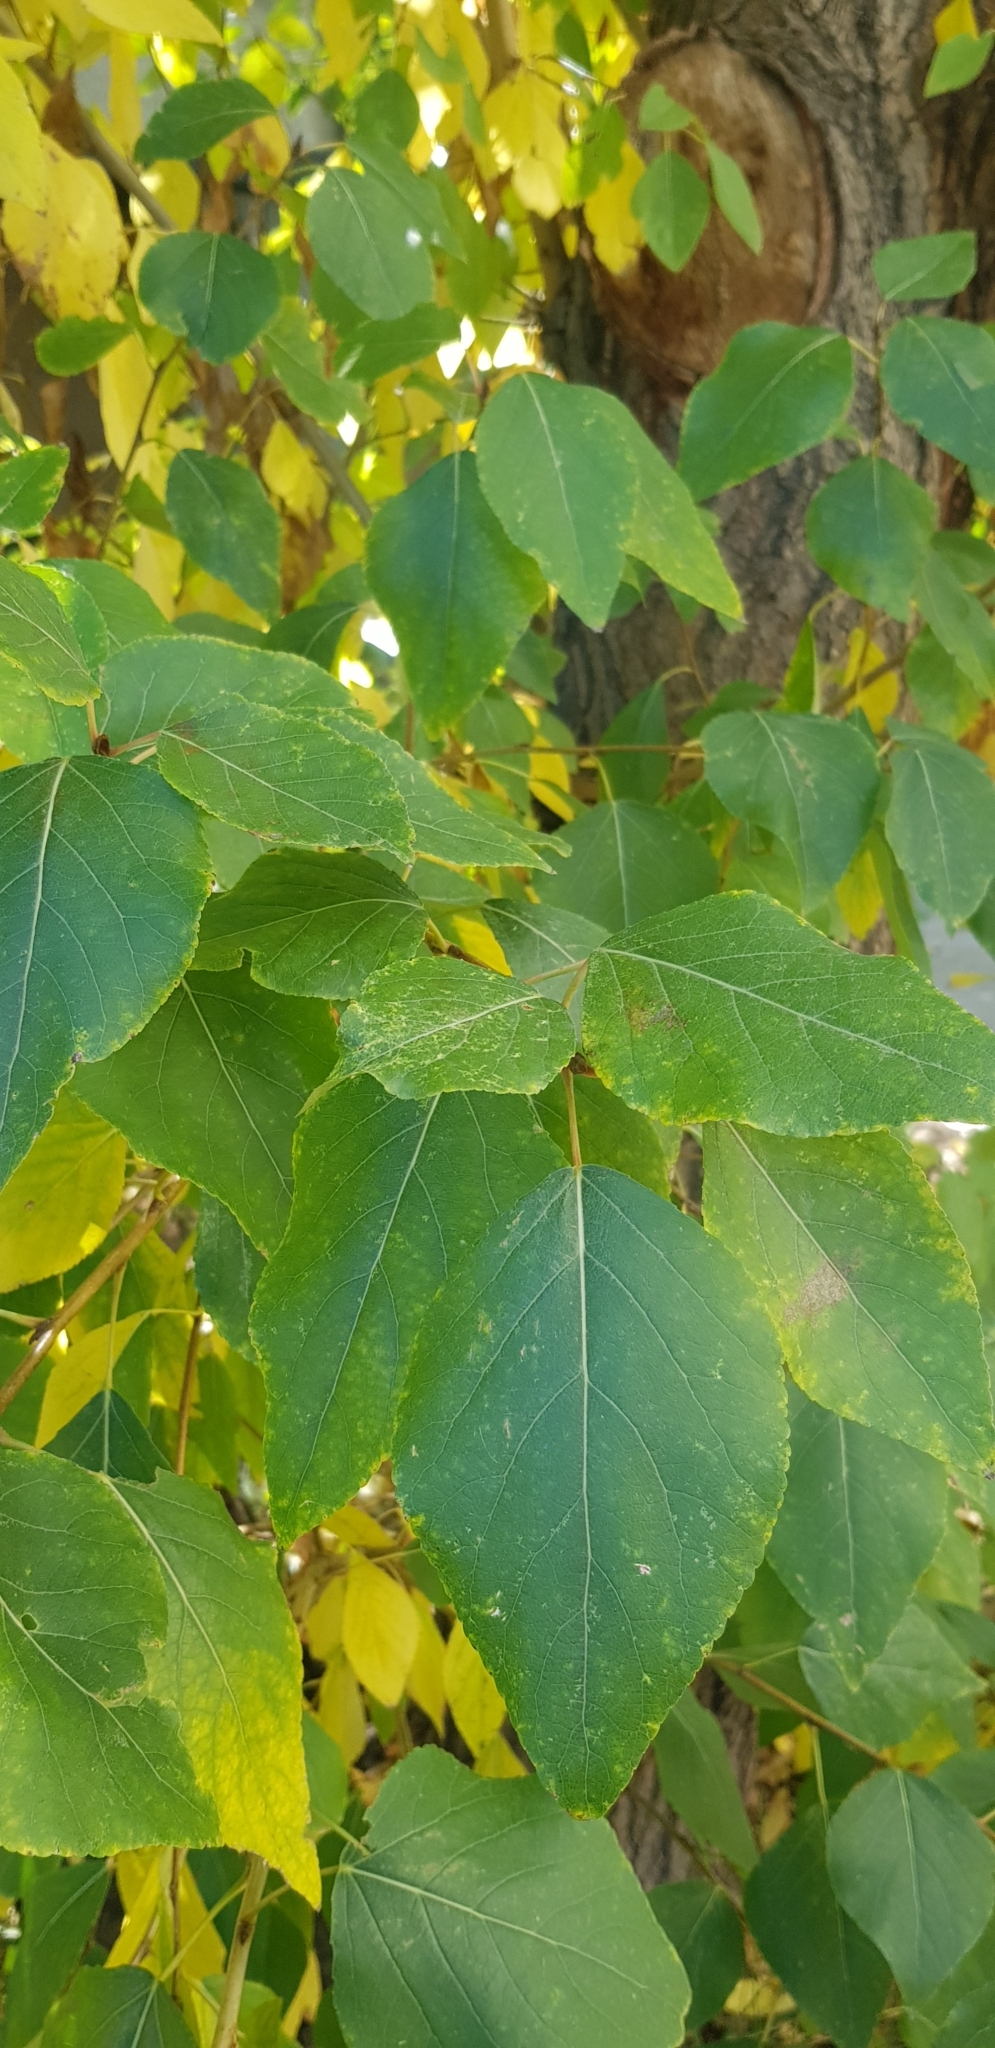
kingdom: Plantae
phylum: Tracheophyta
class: Magnoliopsida
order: Malpighiales
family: Salicaceae
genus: Populus
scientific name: Populus suaveolens
